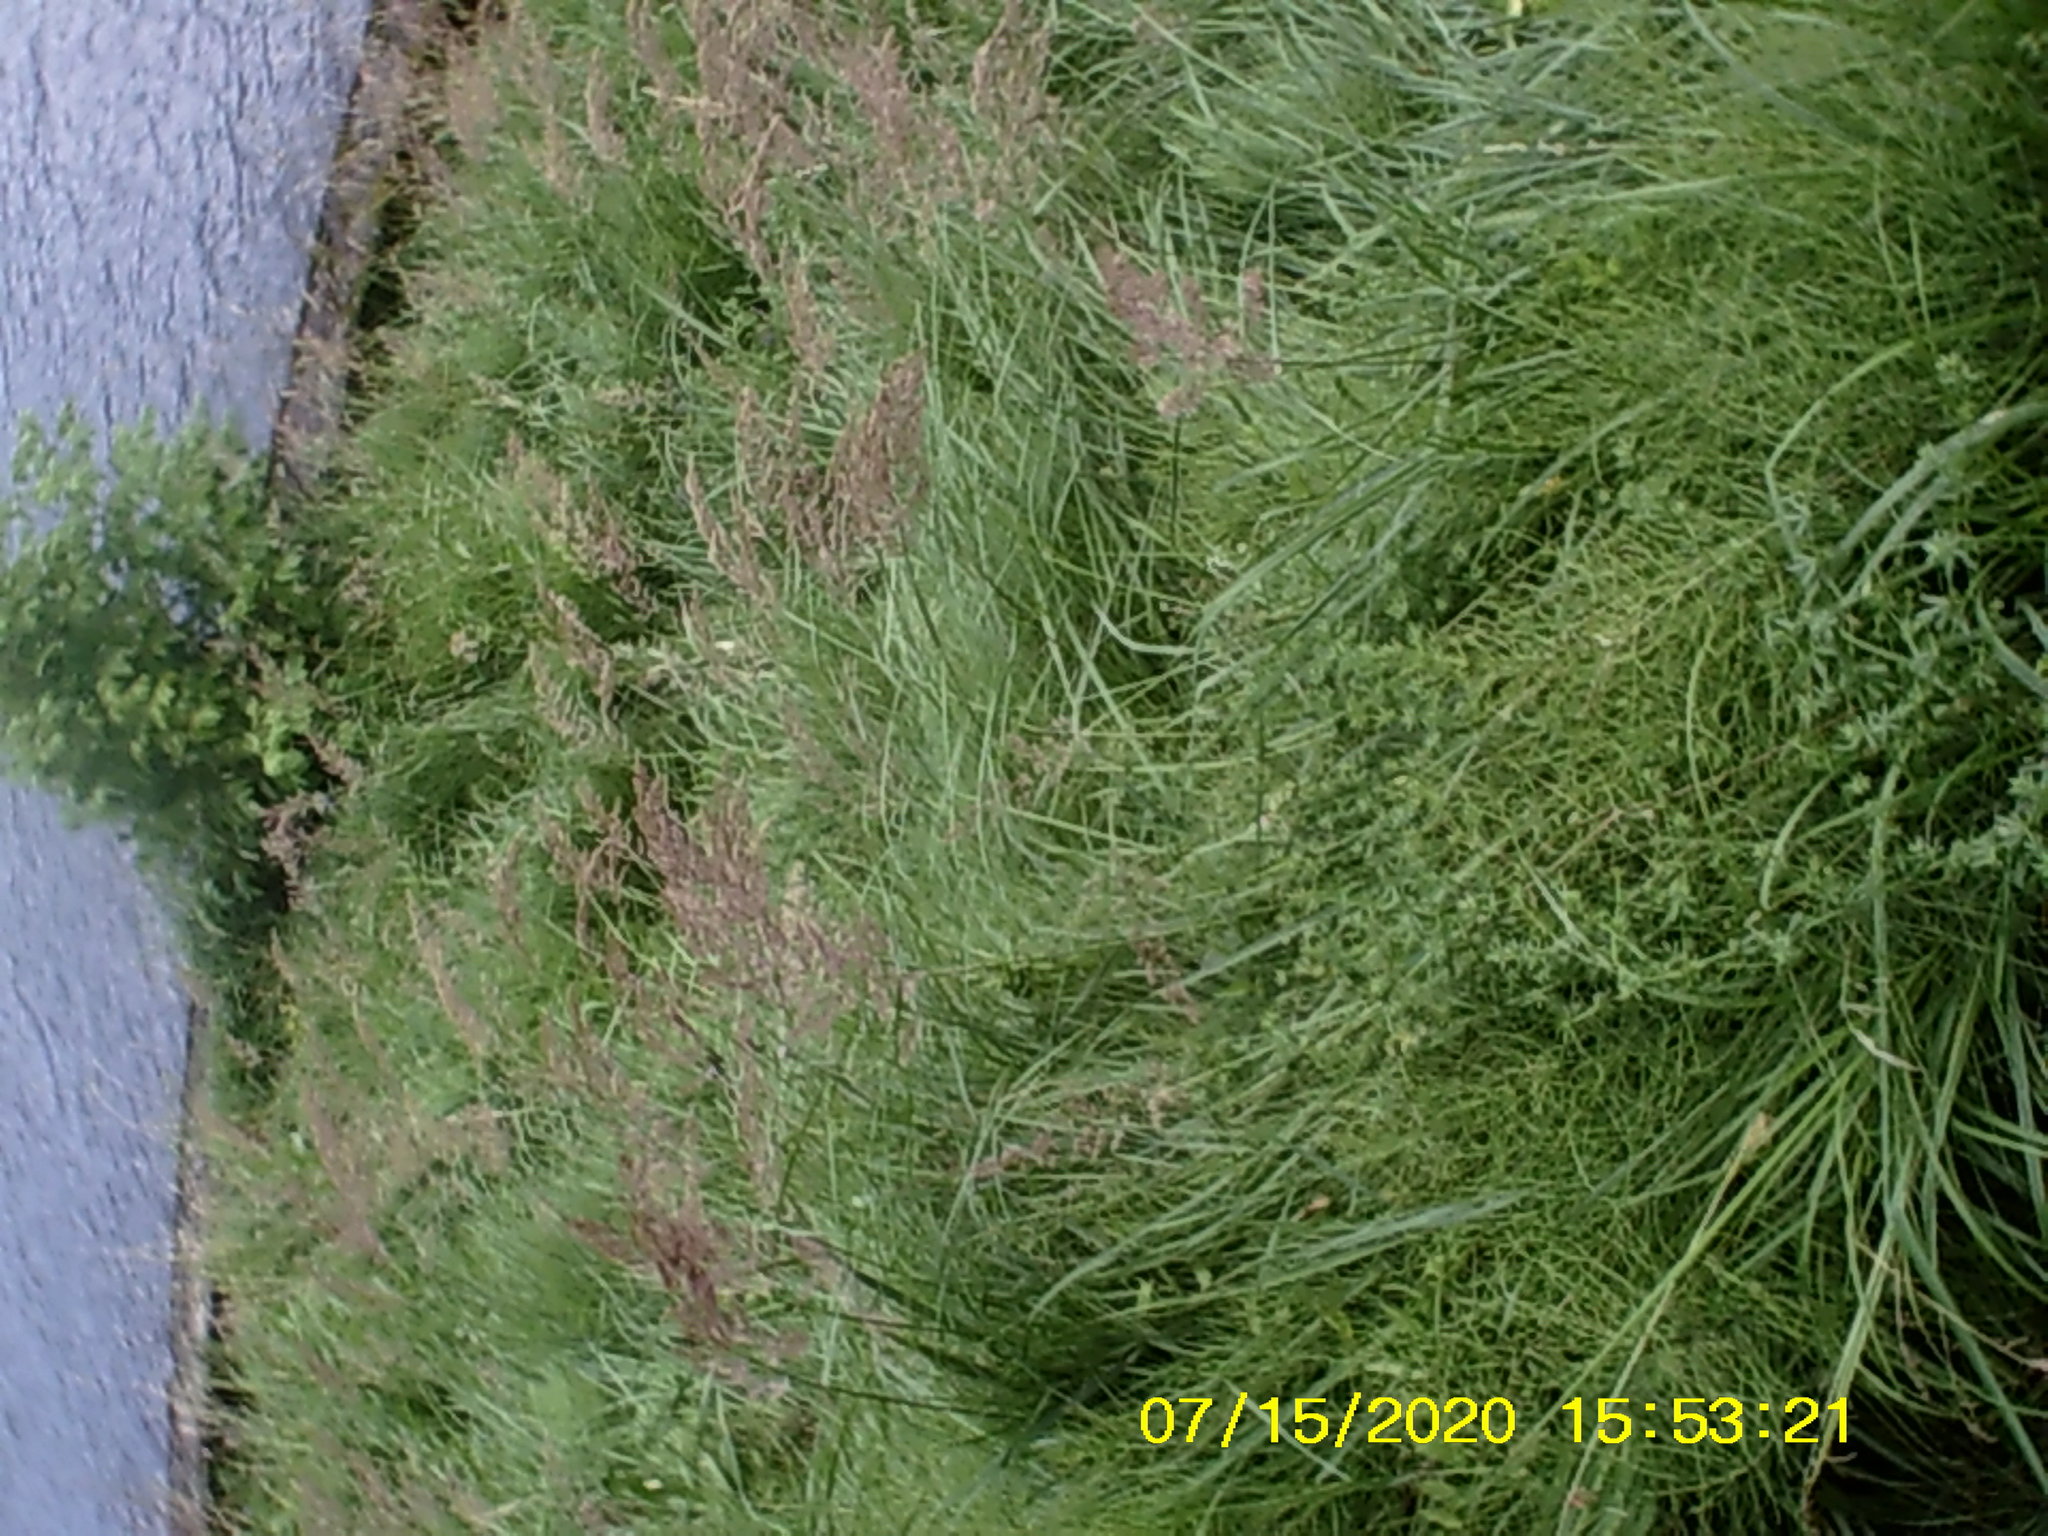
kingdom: Plantae
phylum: Tracheophyta
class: Liliopsida
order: Poales
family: Poaceae
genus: Calamagrostis
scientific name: Calamagrostis epigejos
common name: Wood small-reed
